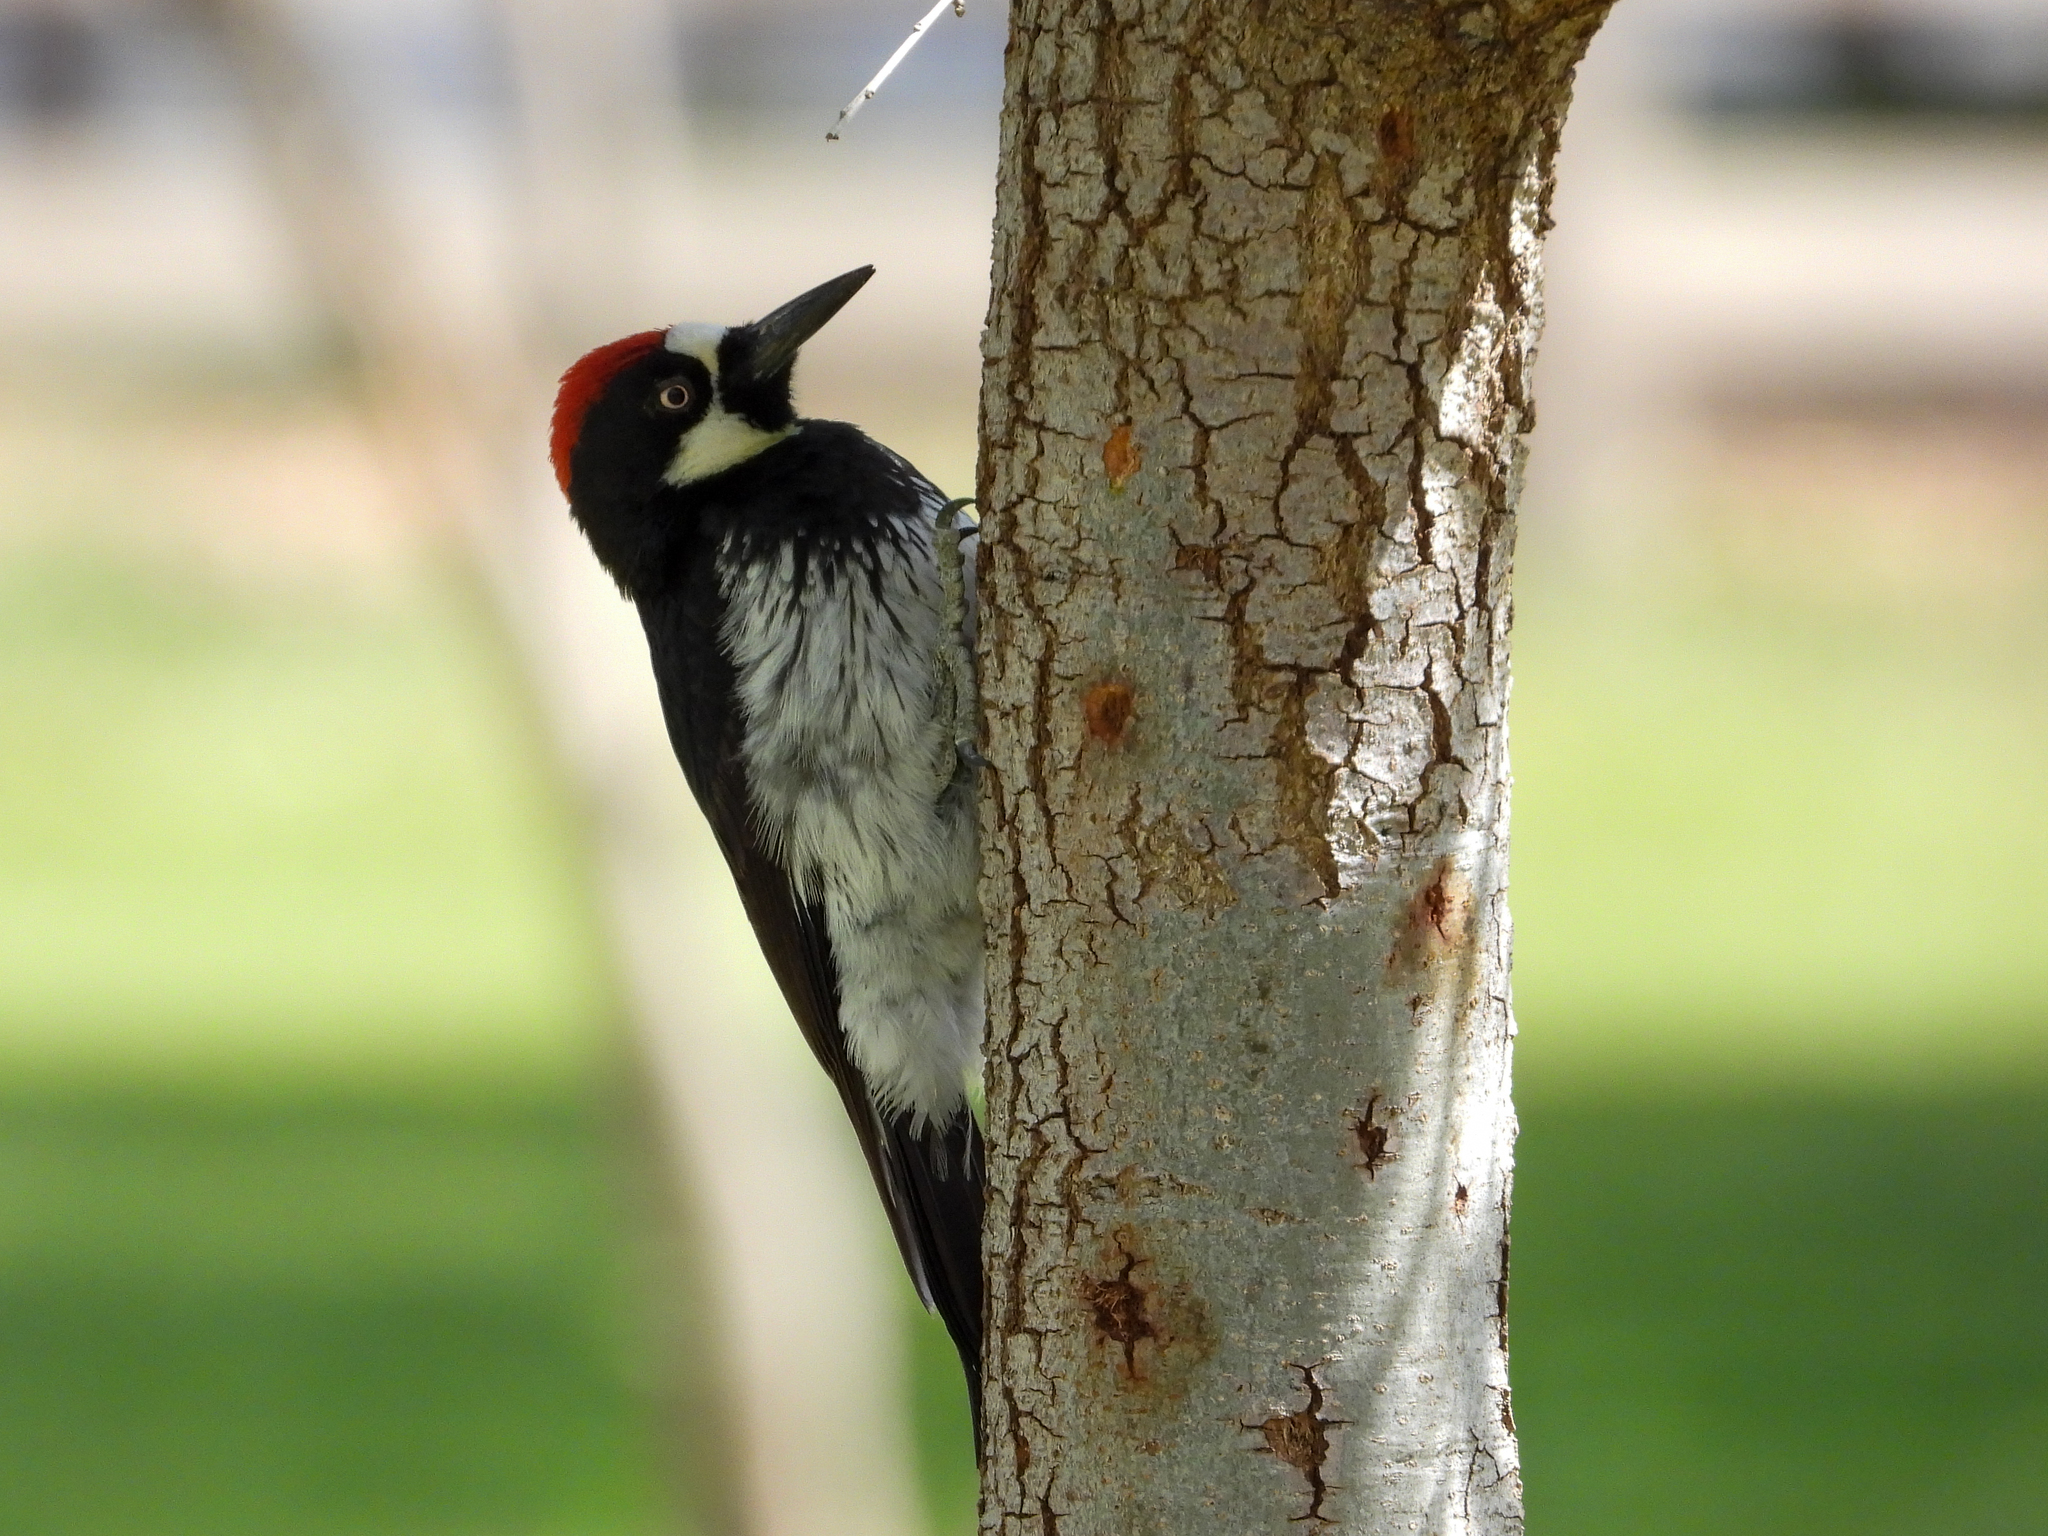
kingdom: Animalia
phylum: Chordata
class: Aves
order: Piciformes
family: Picidae
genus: Melanerpes
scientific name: Melanerpes formicivorus
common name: Acorn woodpecker
